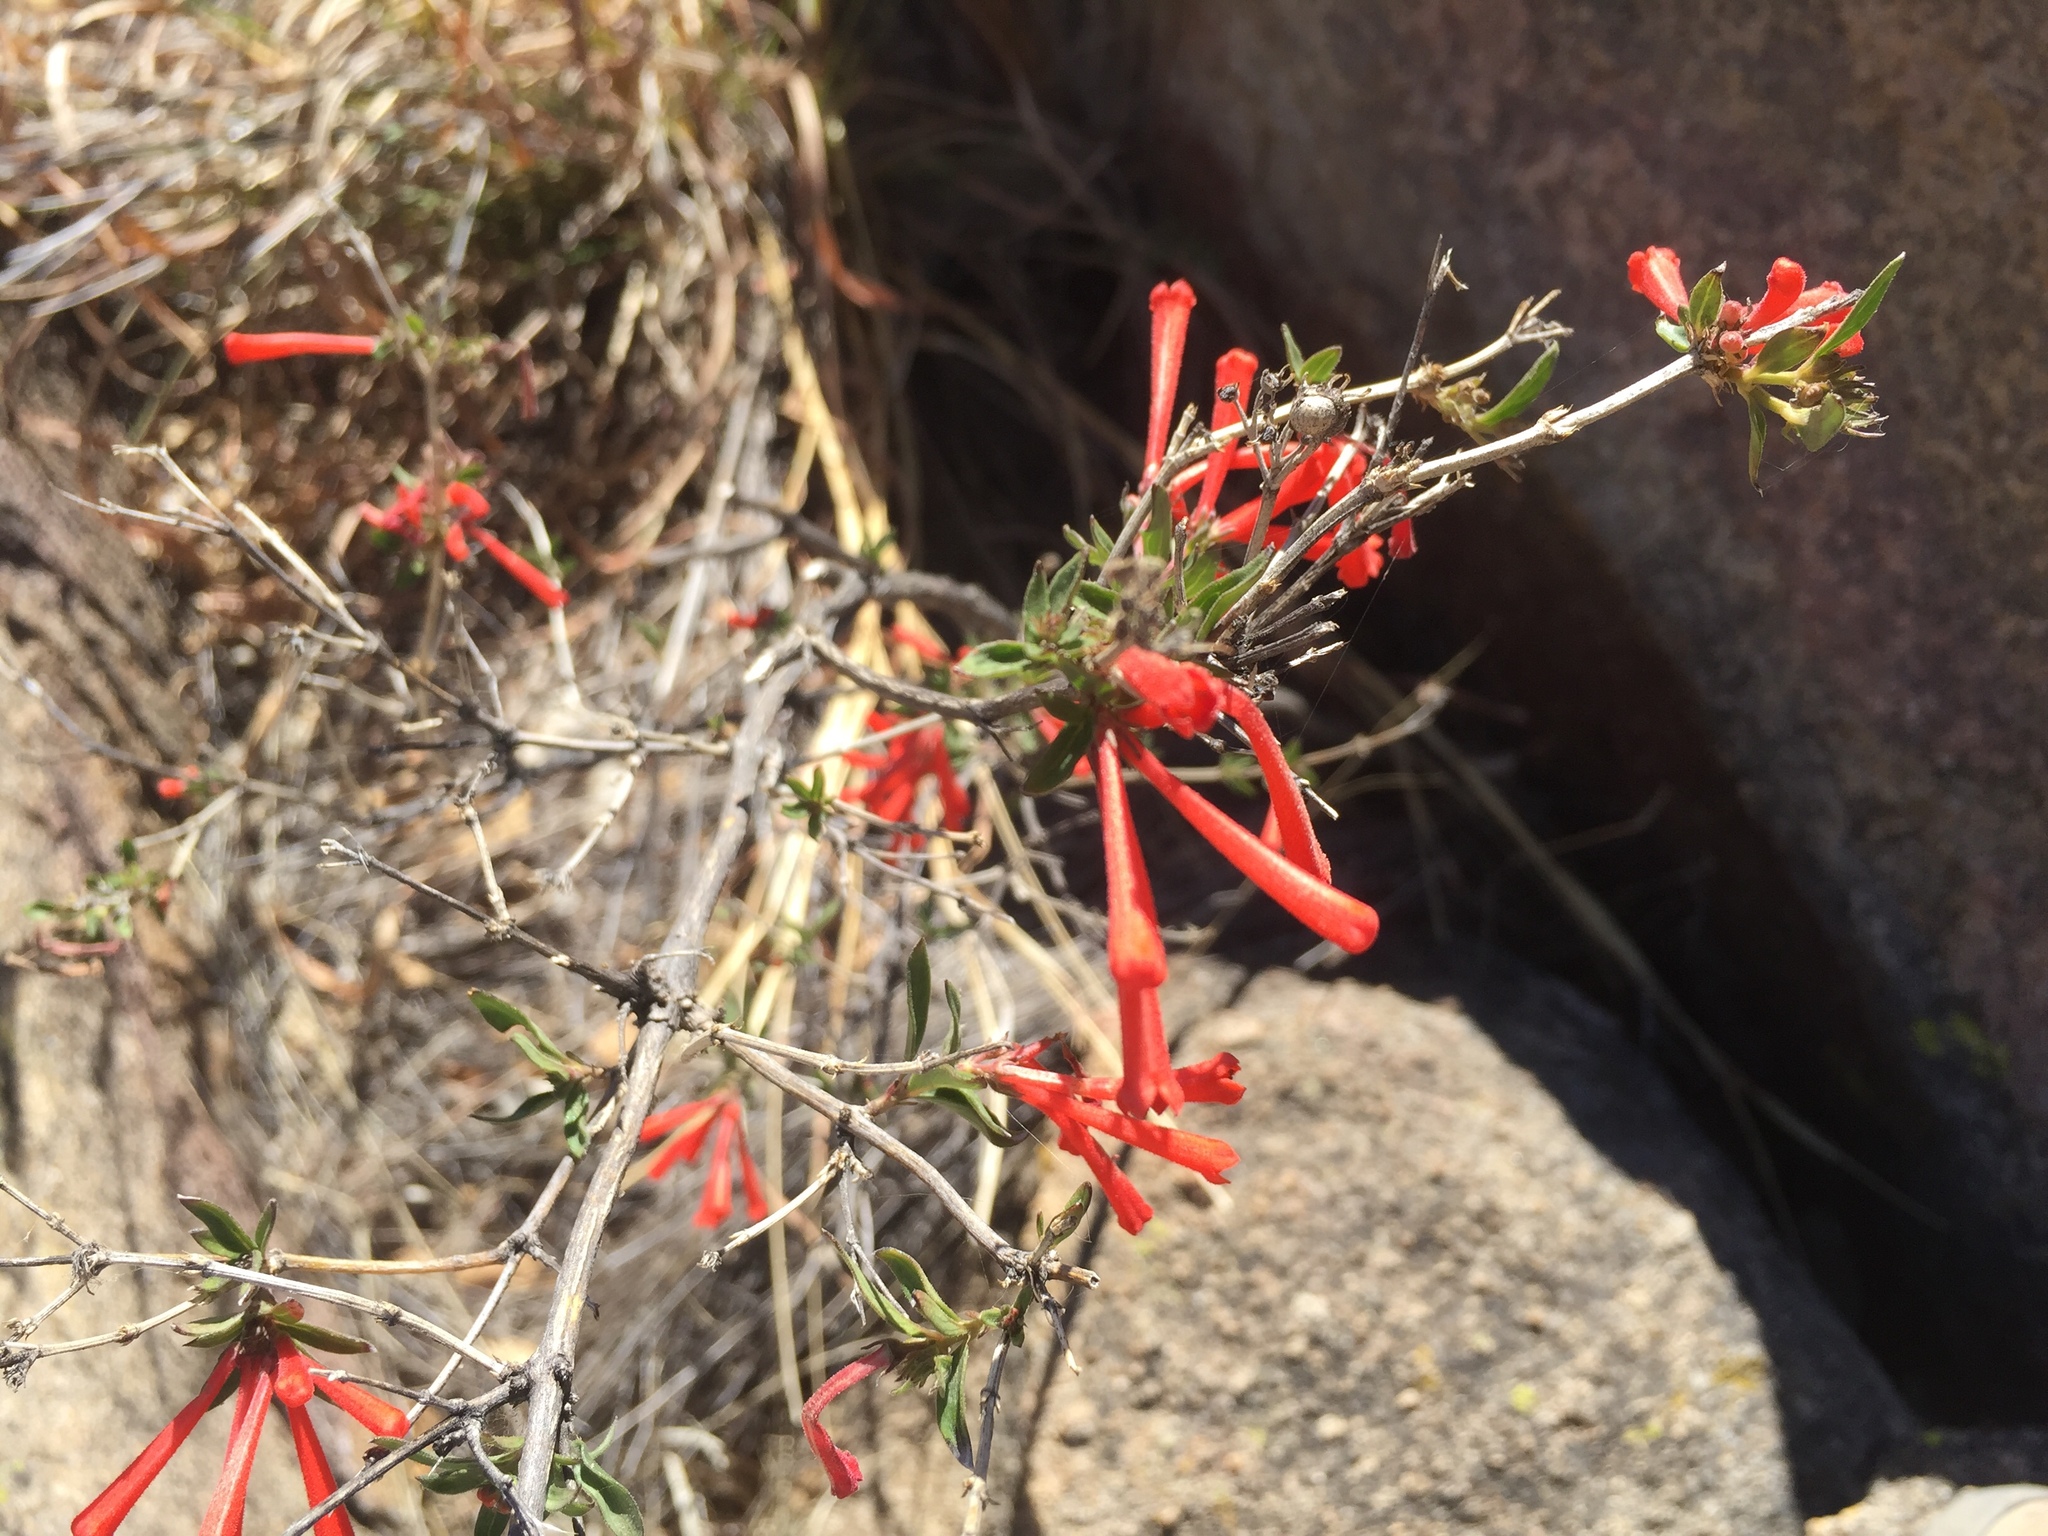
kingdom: Plantae
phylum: Tracheophyta
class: Magnoliopsida
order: Gentianales
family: Rubiaceae
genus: Bouvardia
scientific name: Bouvardia ternifolia
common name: Scarlet bouvardia
